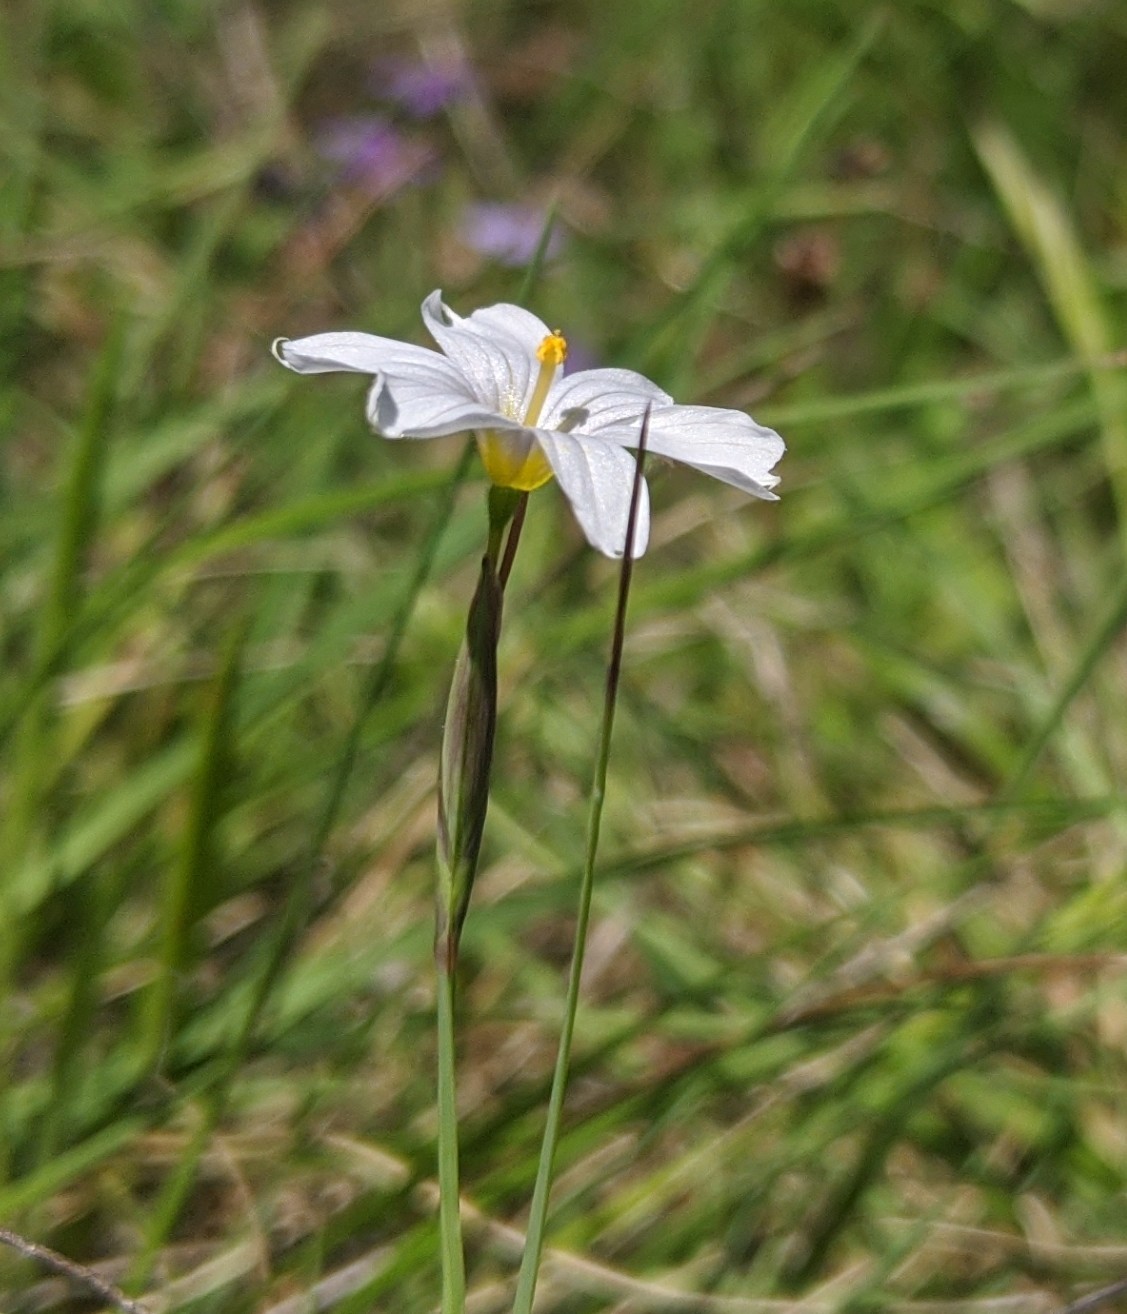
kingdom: Plantae
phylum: Tracheophyta
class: Liliopsida
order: Asparagales
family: Iridaceae
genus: Sisyrinchium
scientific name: Sisyrinchium bellum
